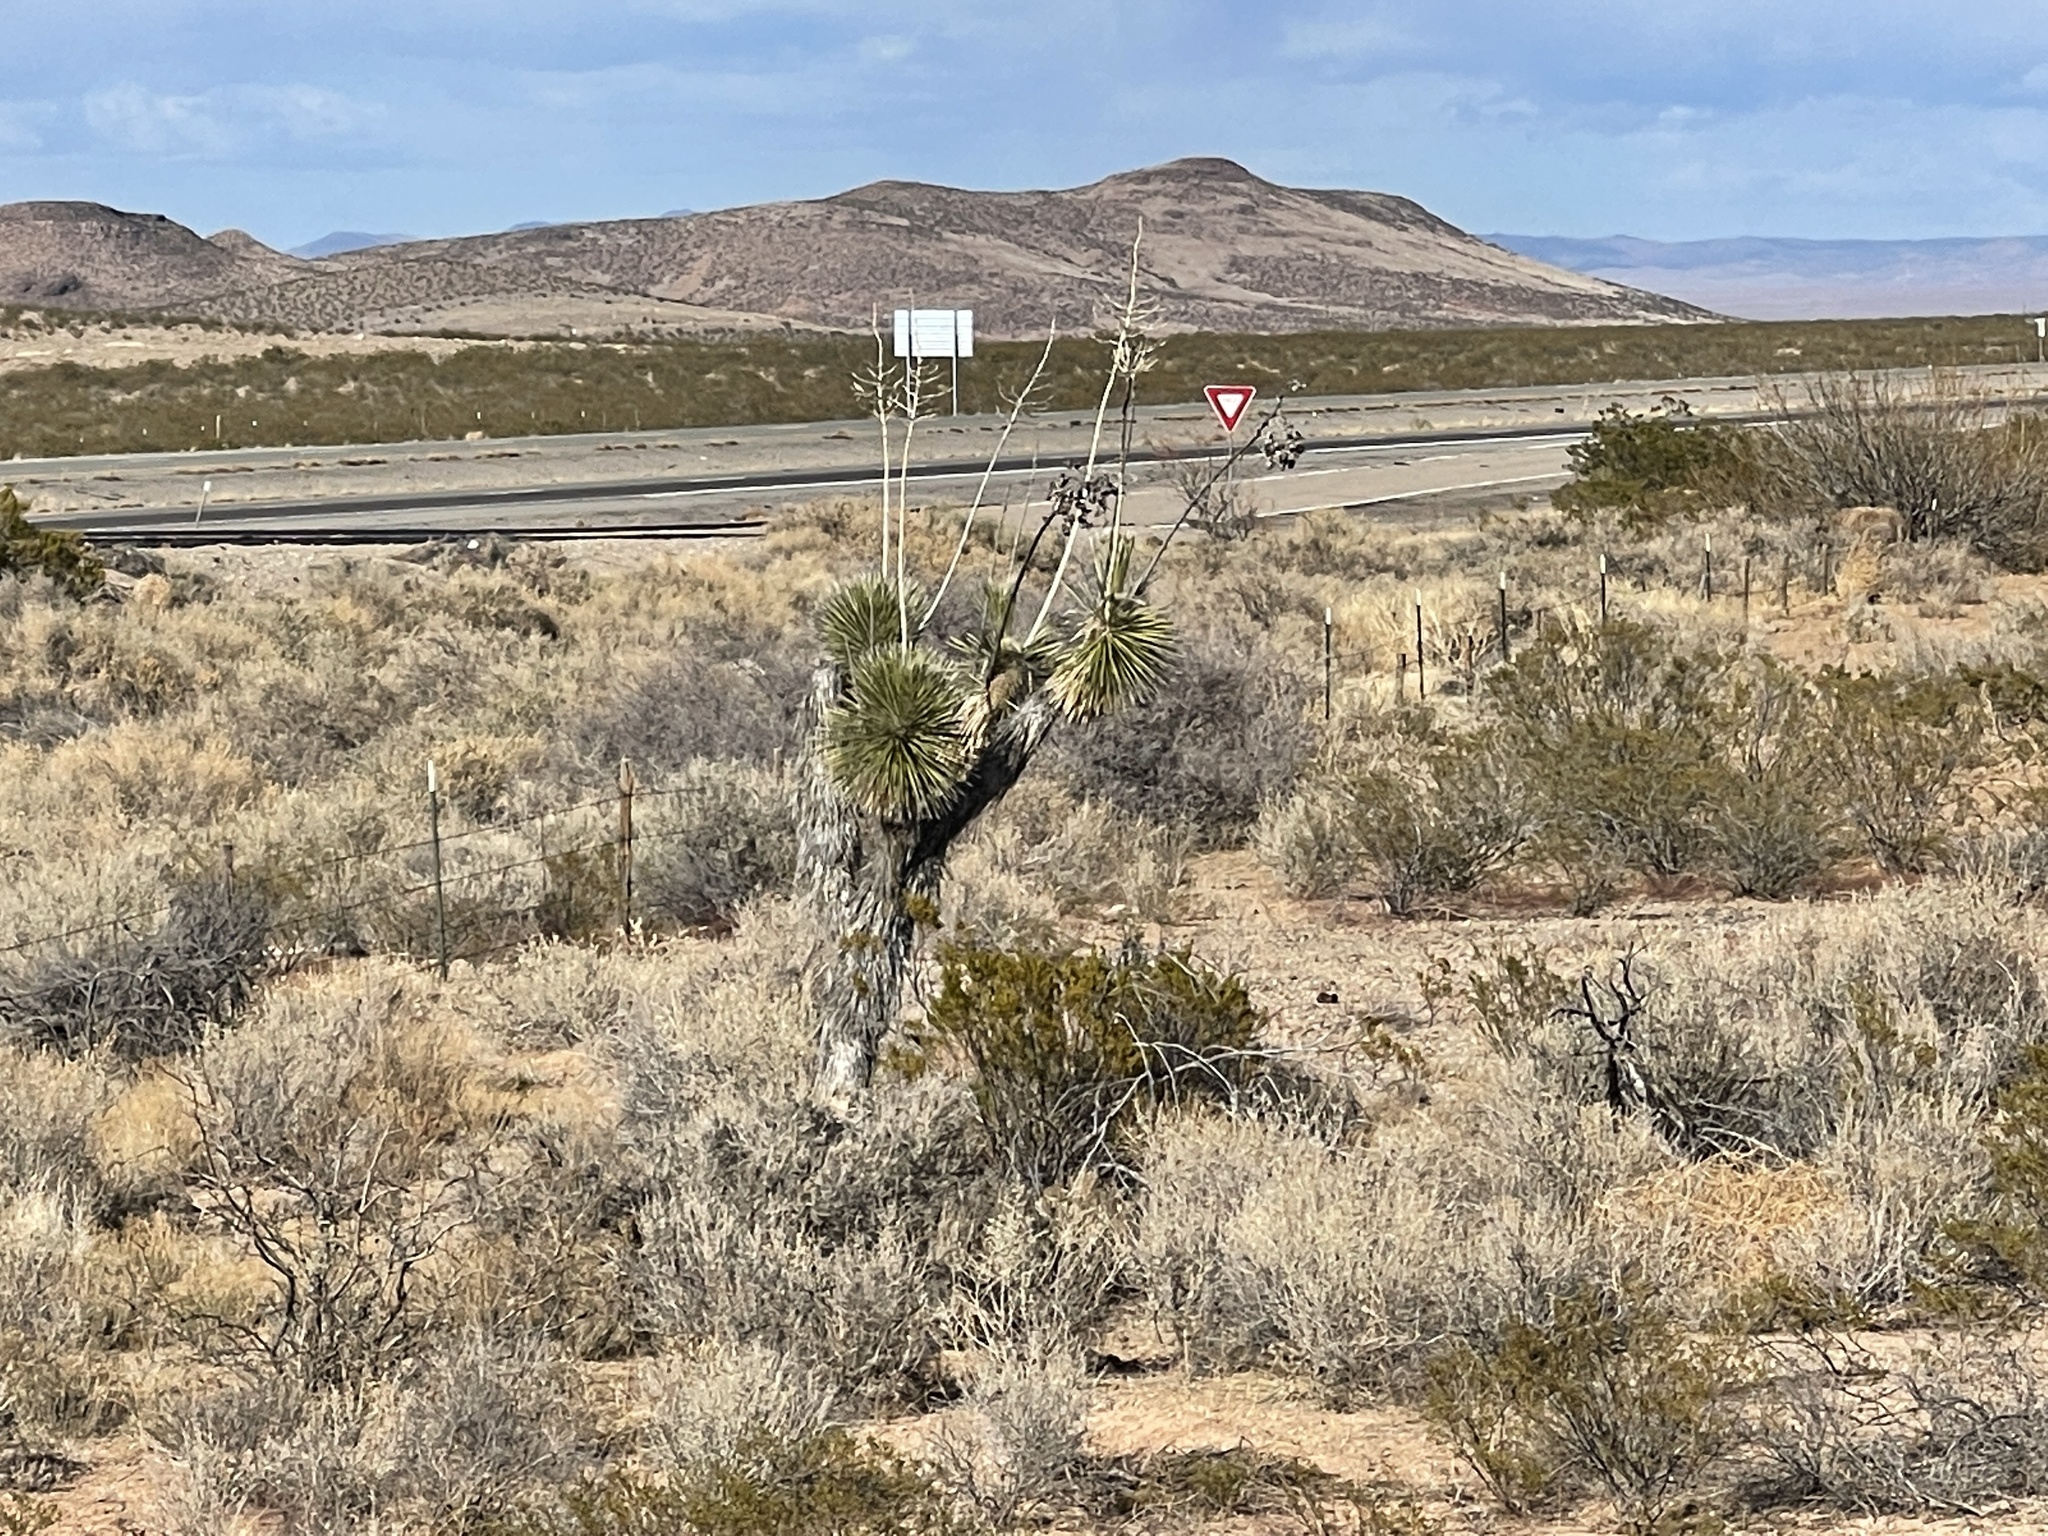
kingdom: Plantae
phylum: Tracheophyta
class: Liliopsida
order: Asparagales
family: Asparagaceae
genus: Yucca
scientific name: Yucca elata
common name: Palmella
